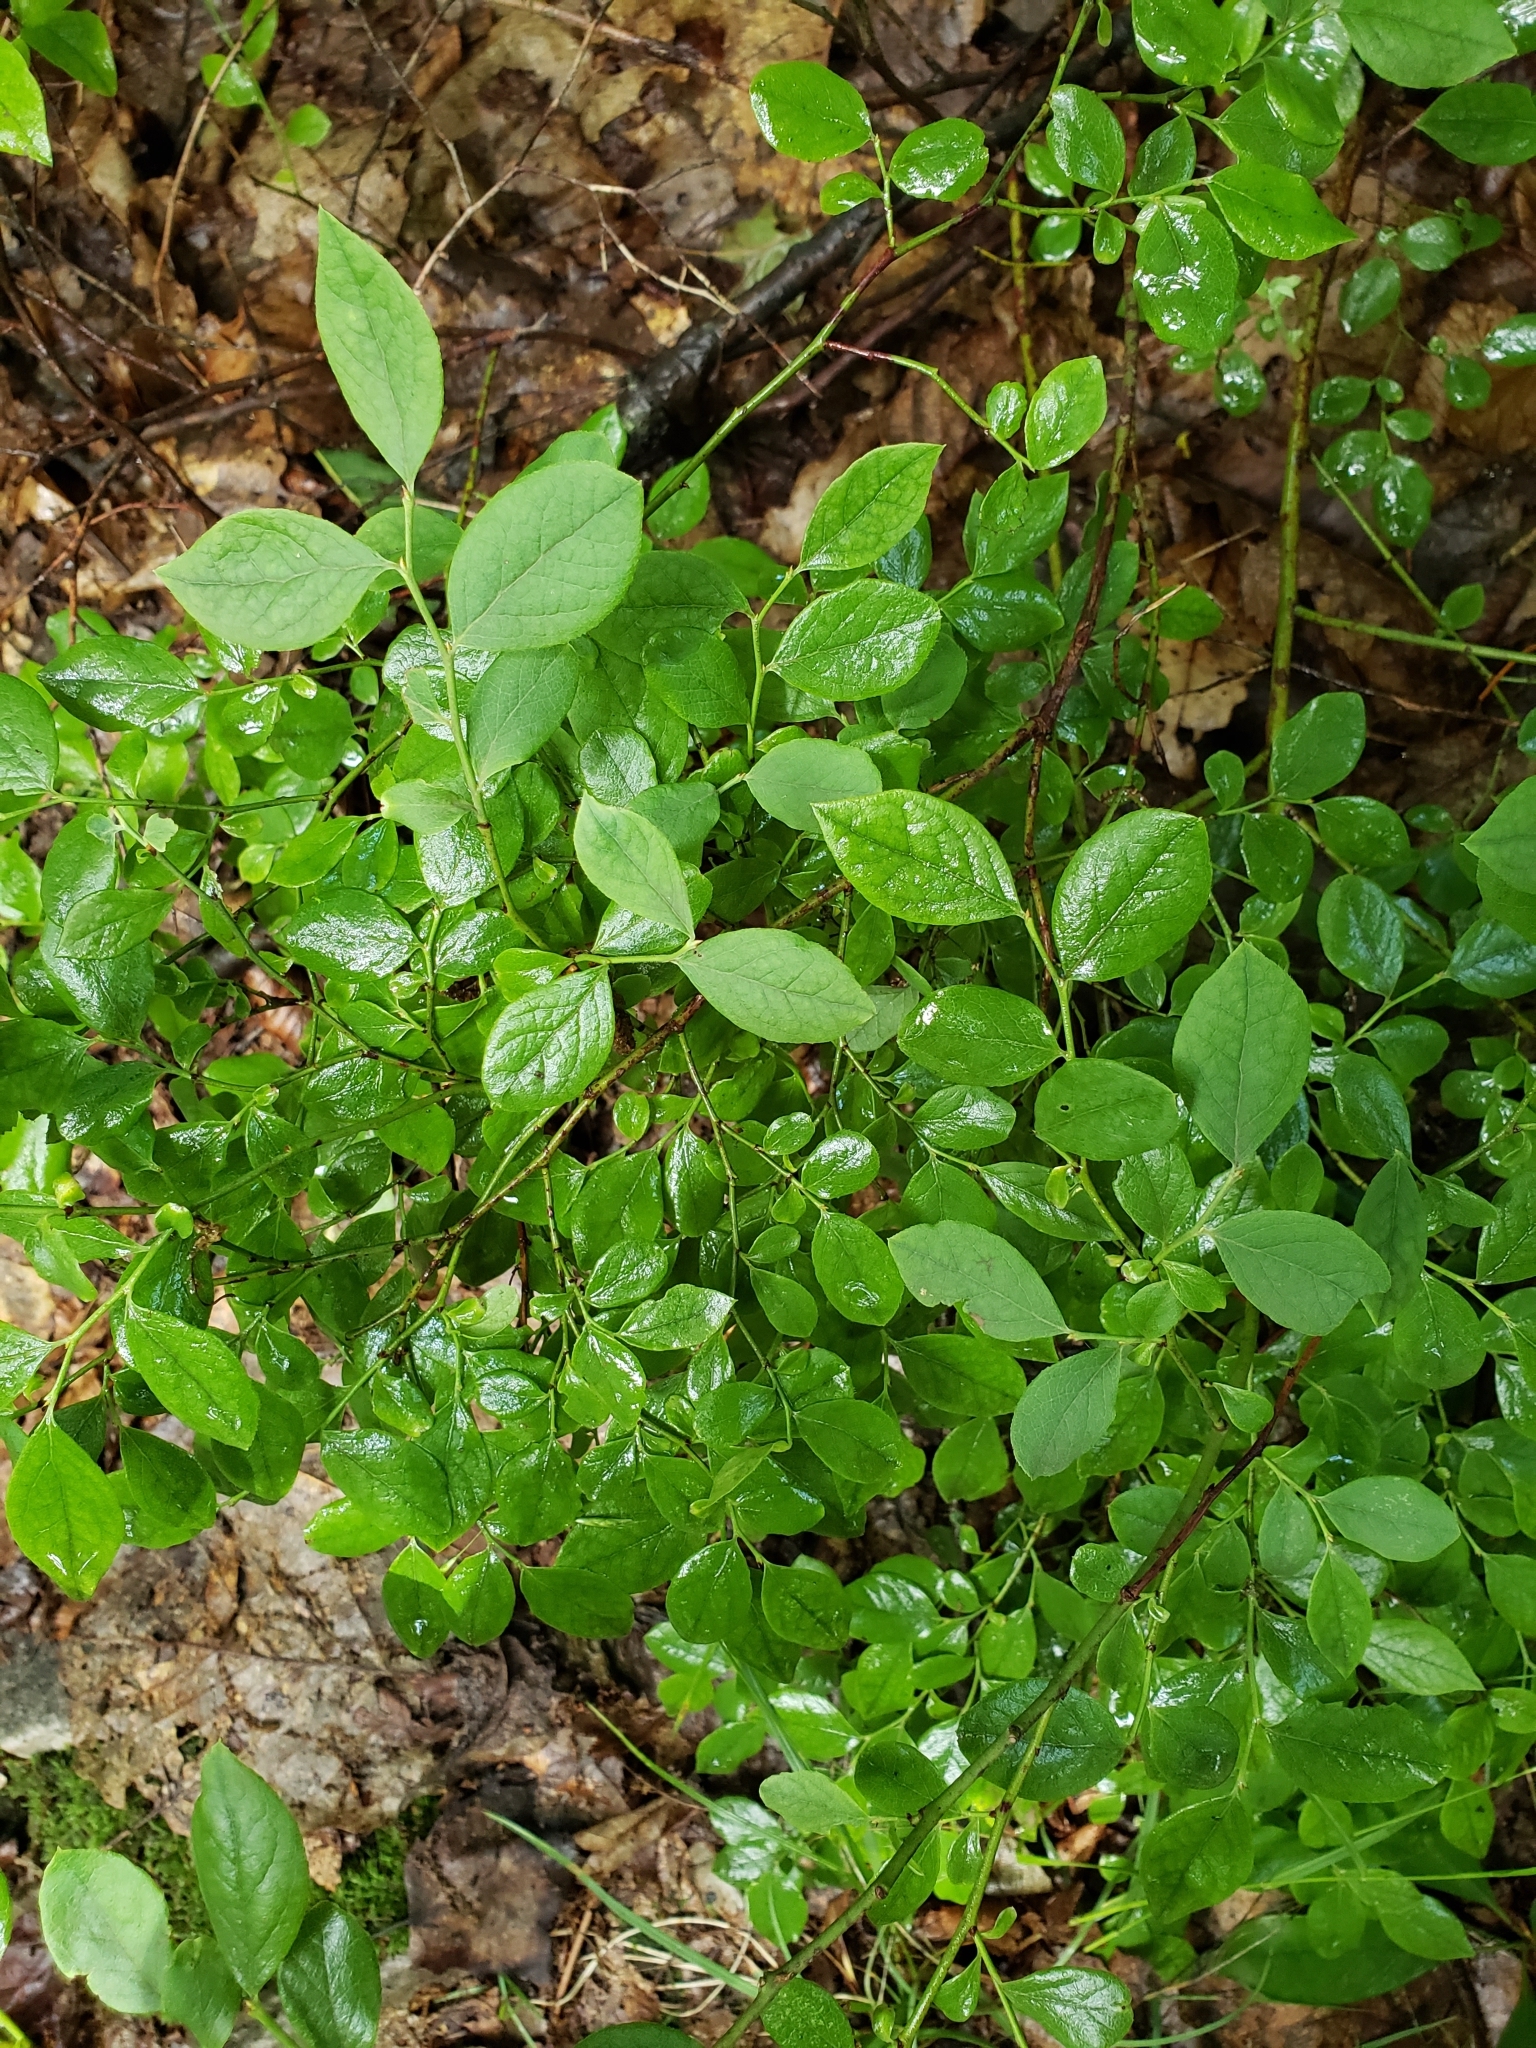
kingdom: Plantae
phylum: Tracheophyta
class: Magnoliopsida
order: Ericales
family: Ericaceae
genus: Vaccinium
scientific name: Vaccinium angustifolium
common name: Early lowbush blueberry
